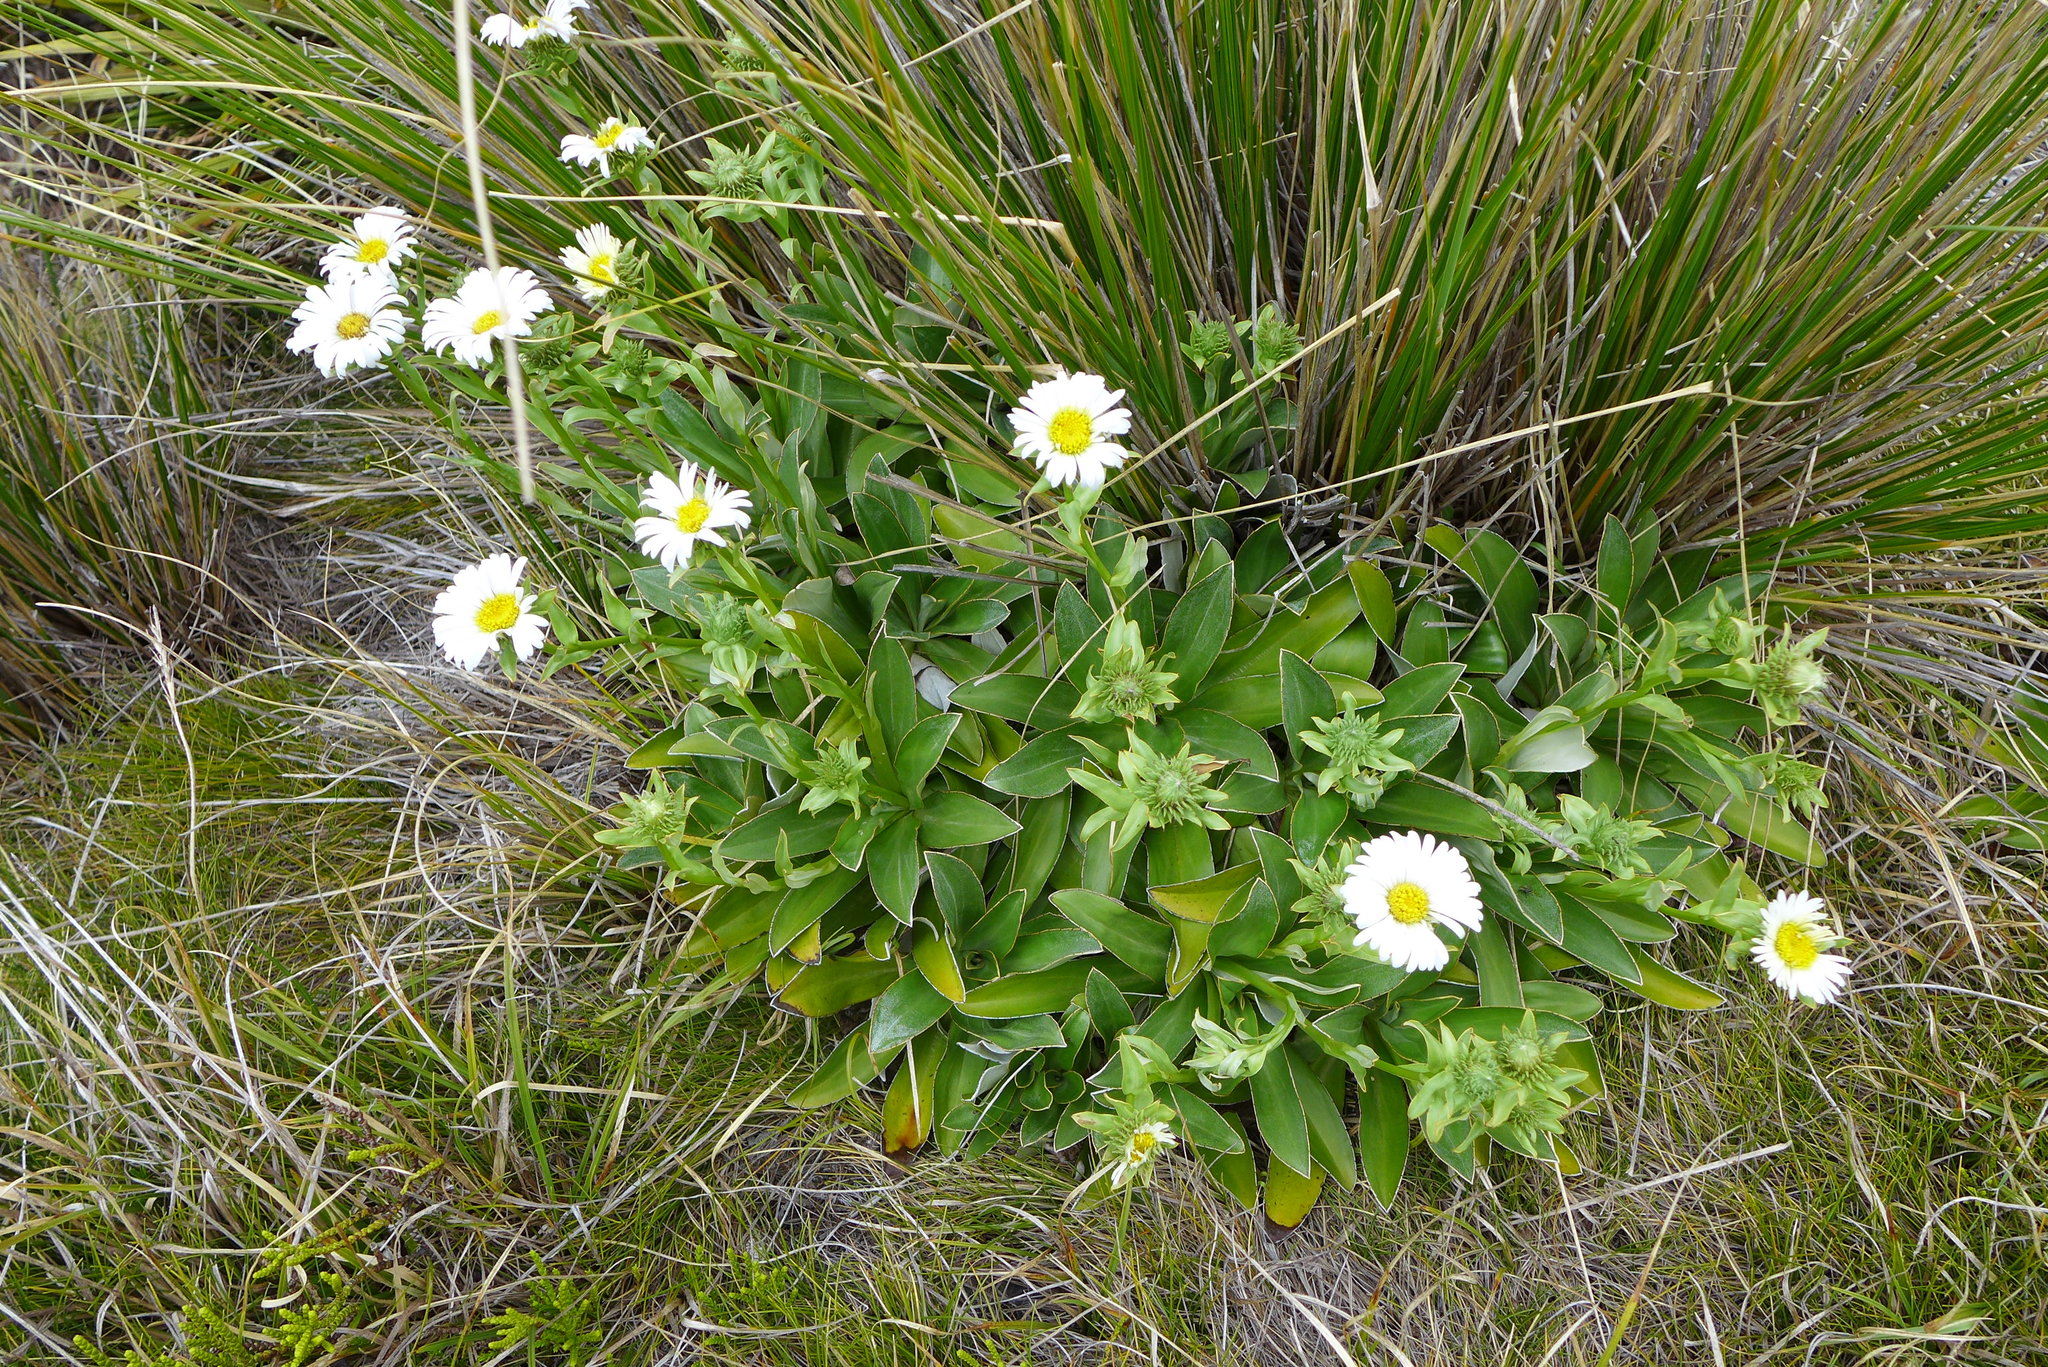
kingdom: Plantae
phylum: Tracheophyta
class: Magnoliopsida
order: Asterales
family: Asteraceae
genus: Celmisia
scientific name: Celmisia dallii
